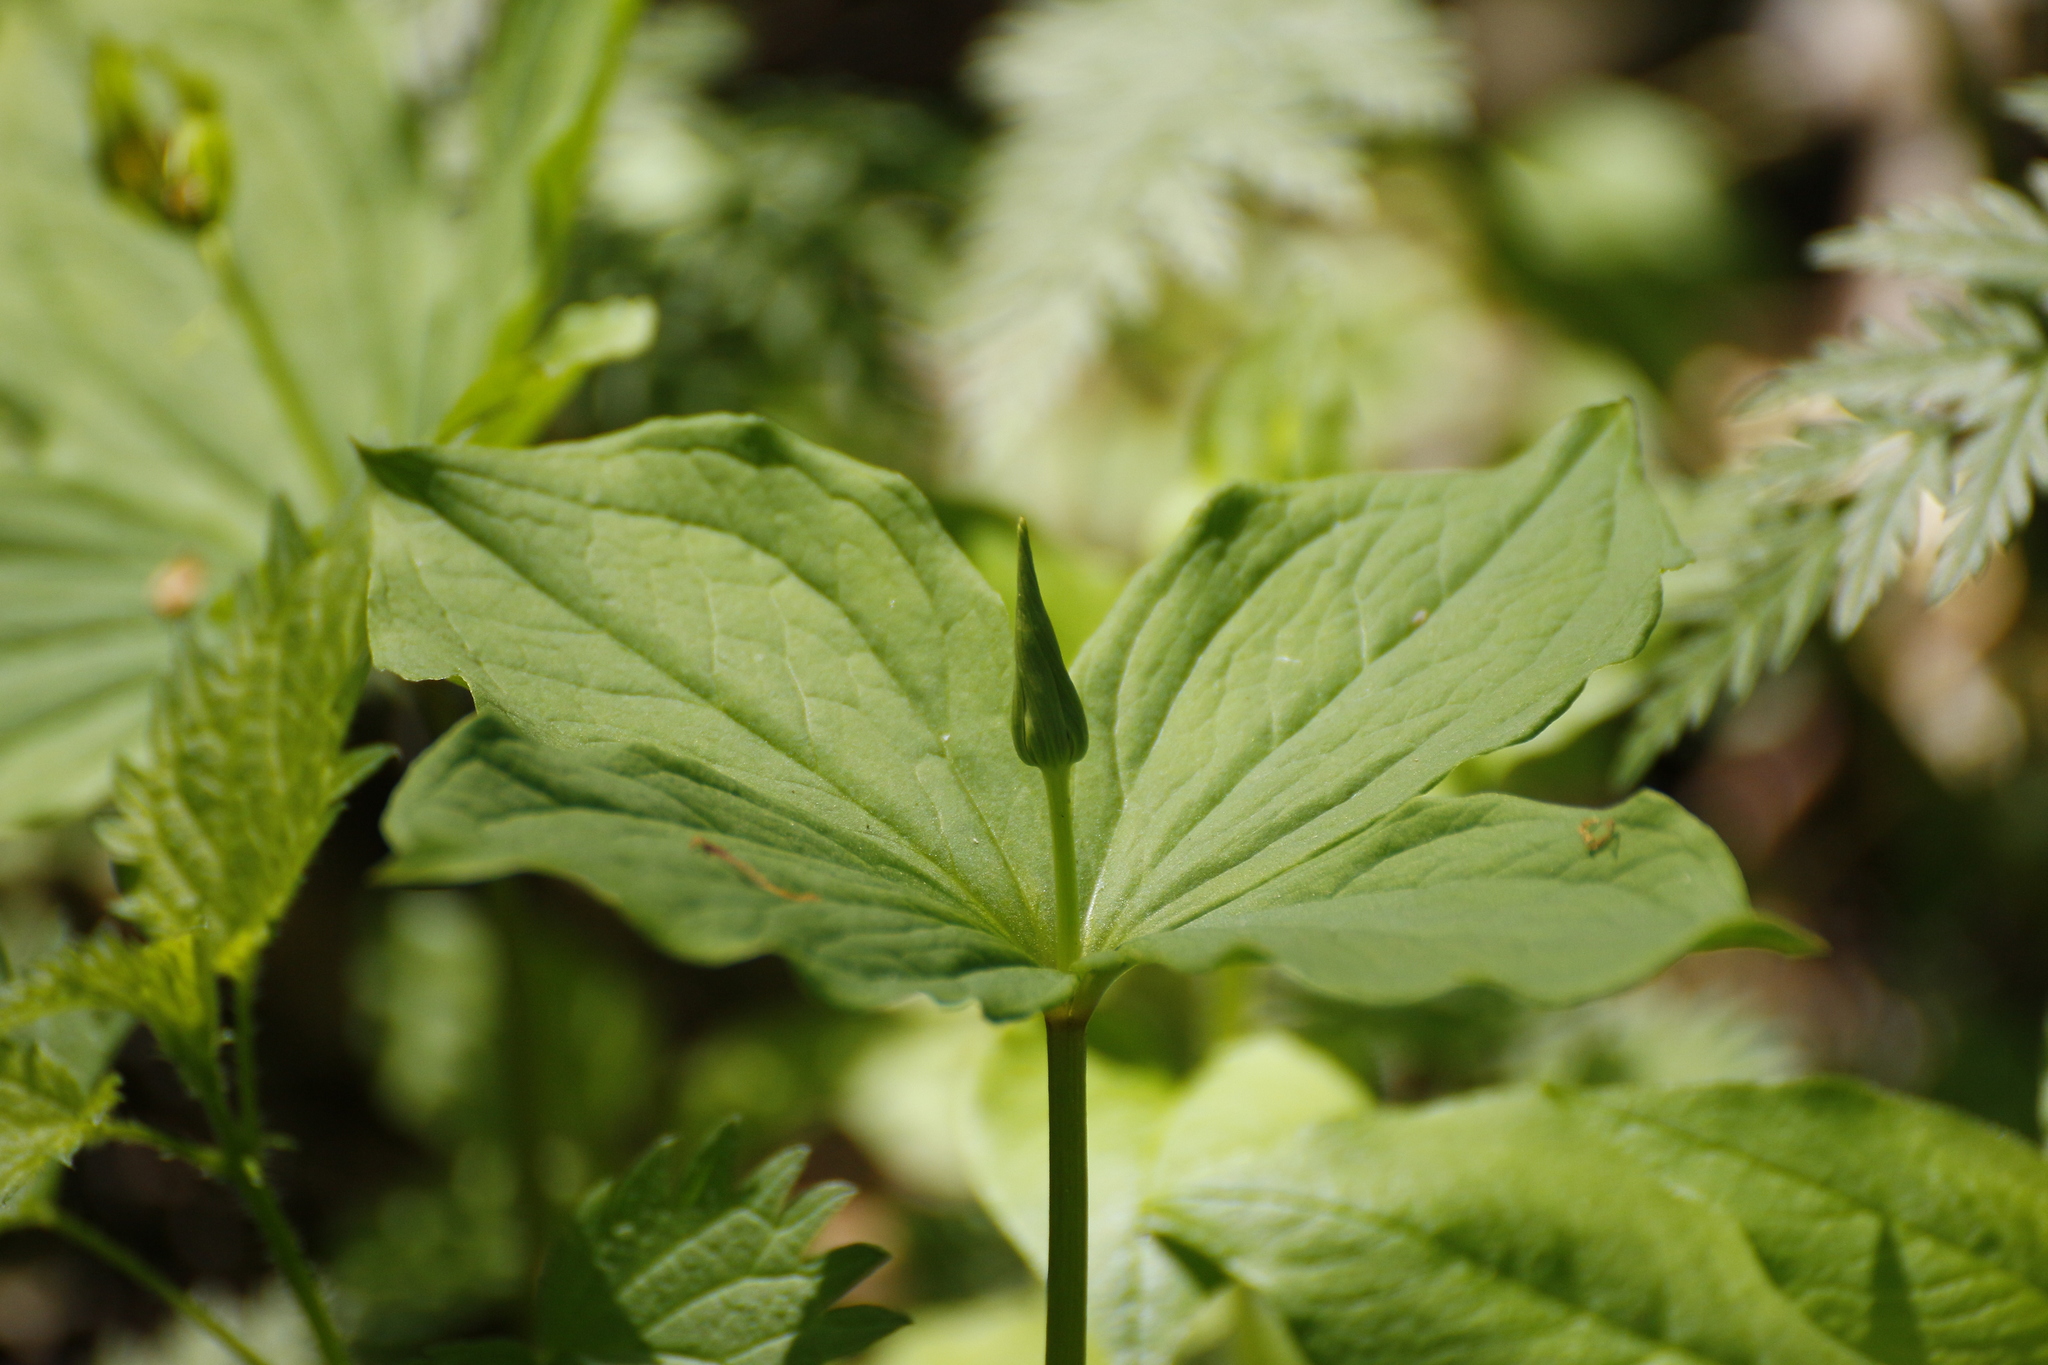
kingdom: Plantae
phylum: Tracheophyta
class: Liliopsida
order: Liliales
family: Melanthiaceae
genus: Paris
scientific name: Paris quadrifolia
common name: Herb-paris
